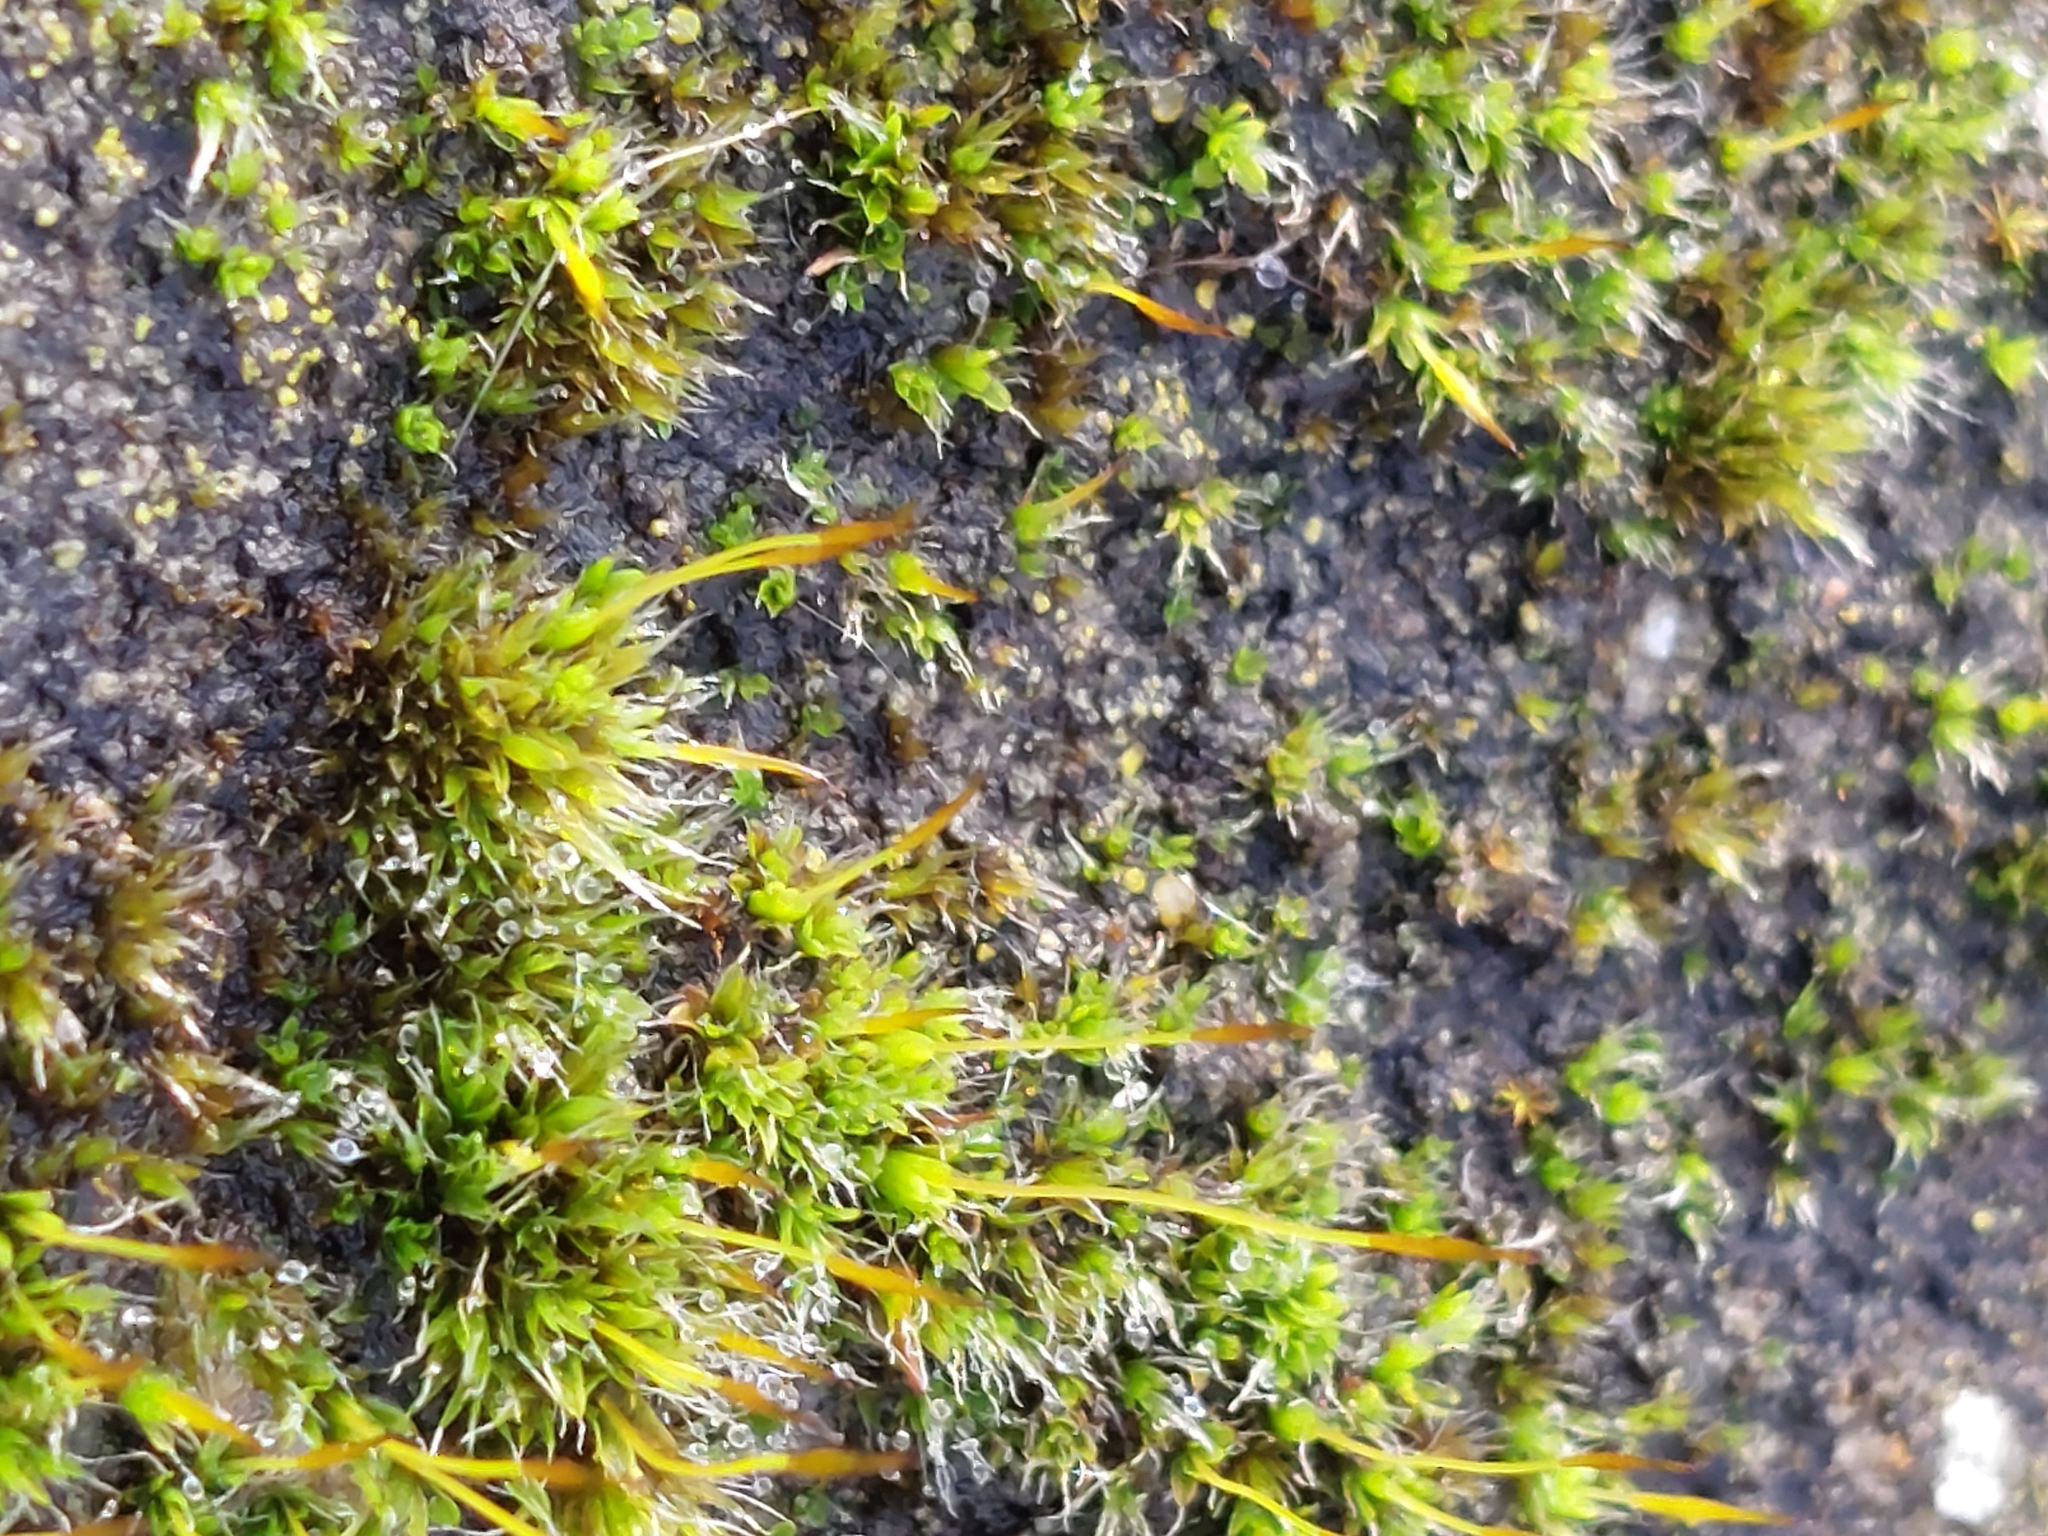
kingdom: Plantae
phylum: Bryophyta
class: Bryopsida
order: Pottiales
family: Pottiaceae
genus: Tortula
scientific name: Tortula muralis
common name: Wall screw-moss
